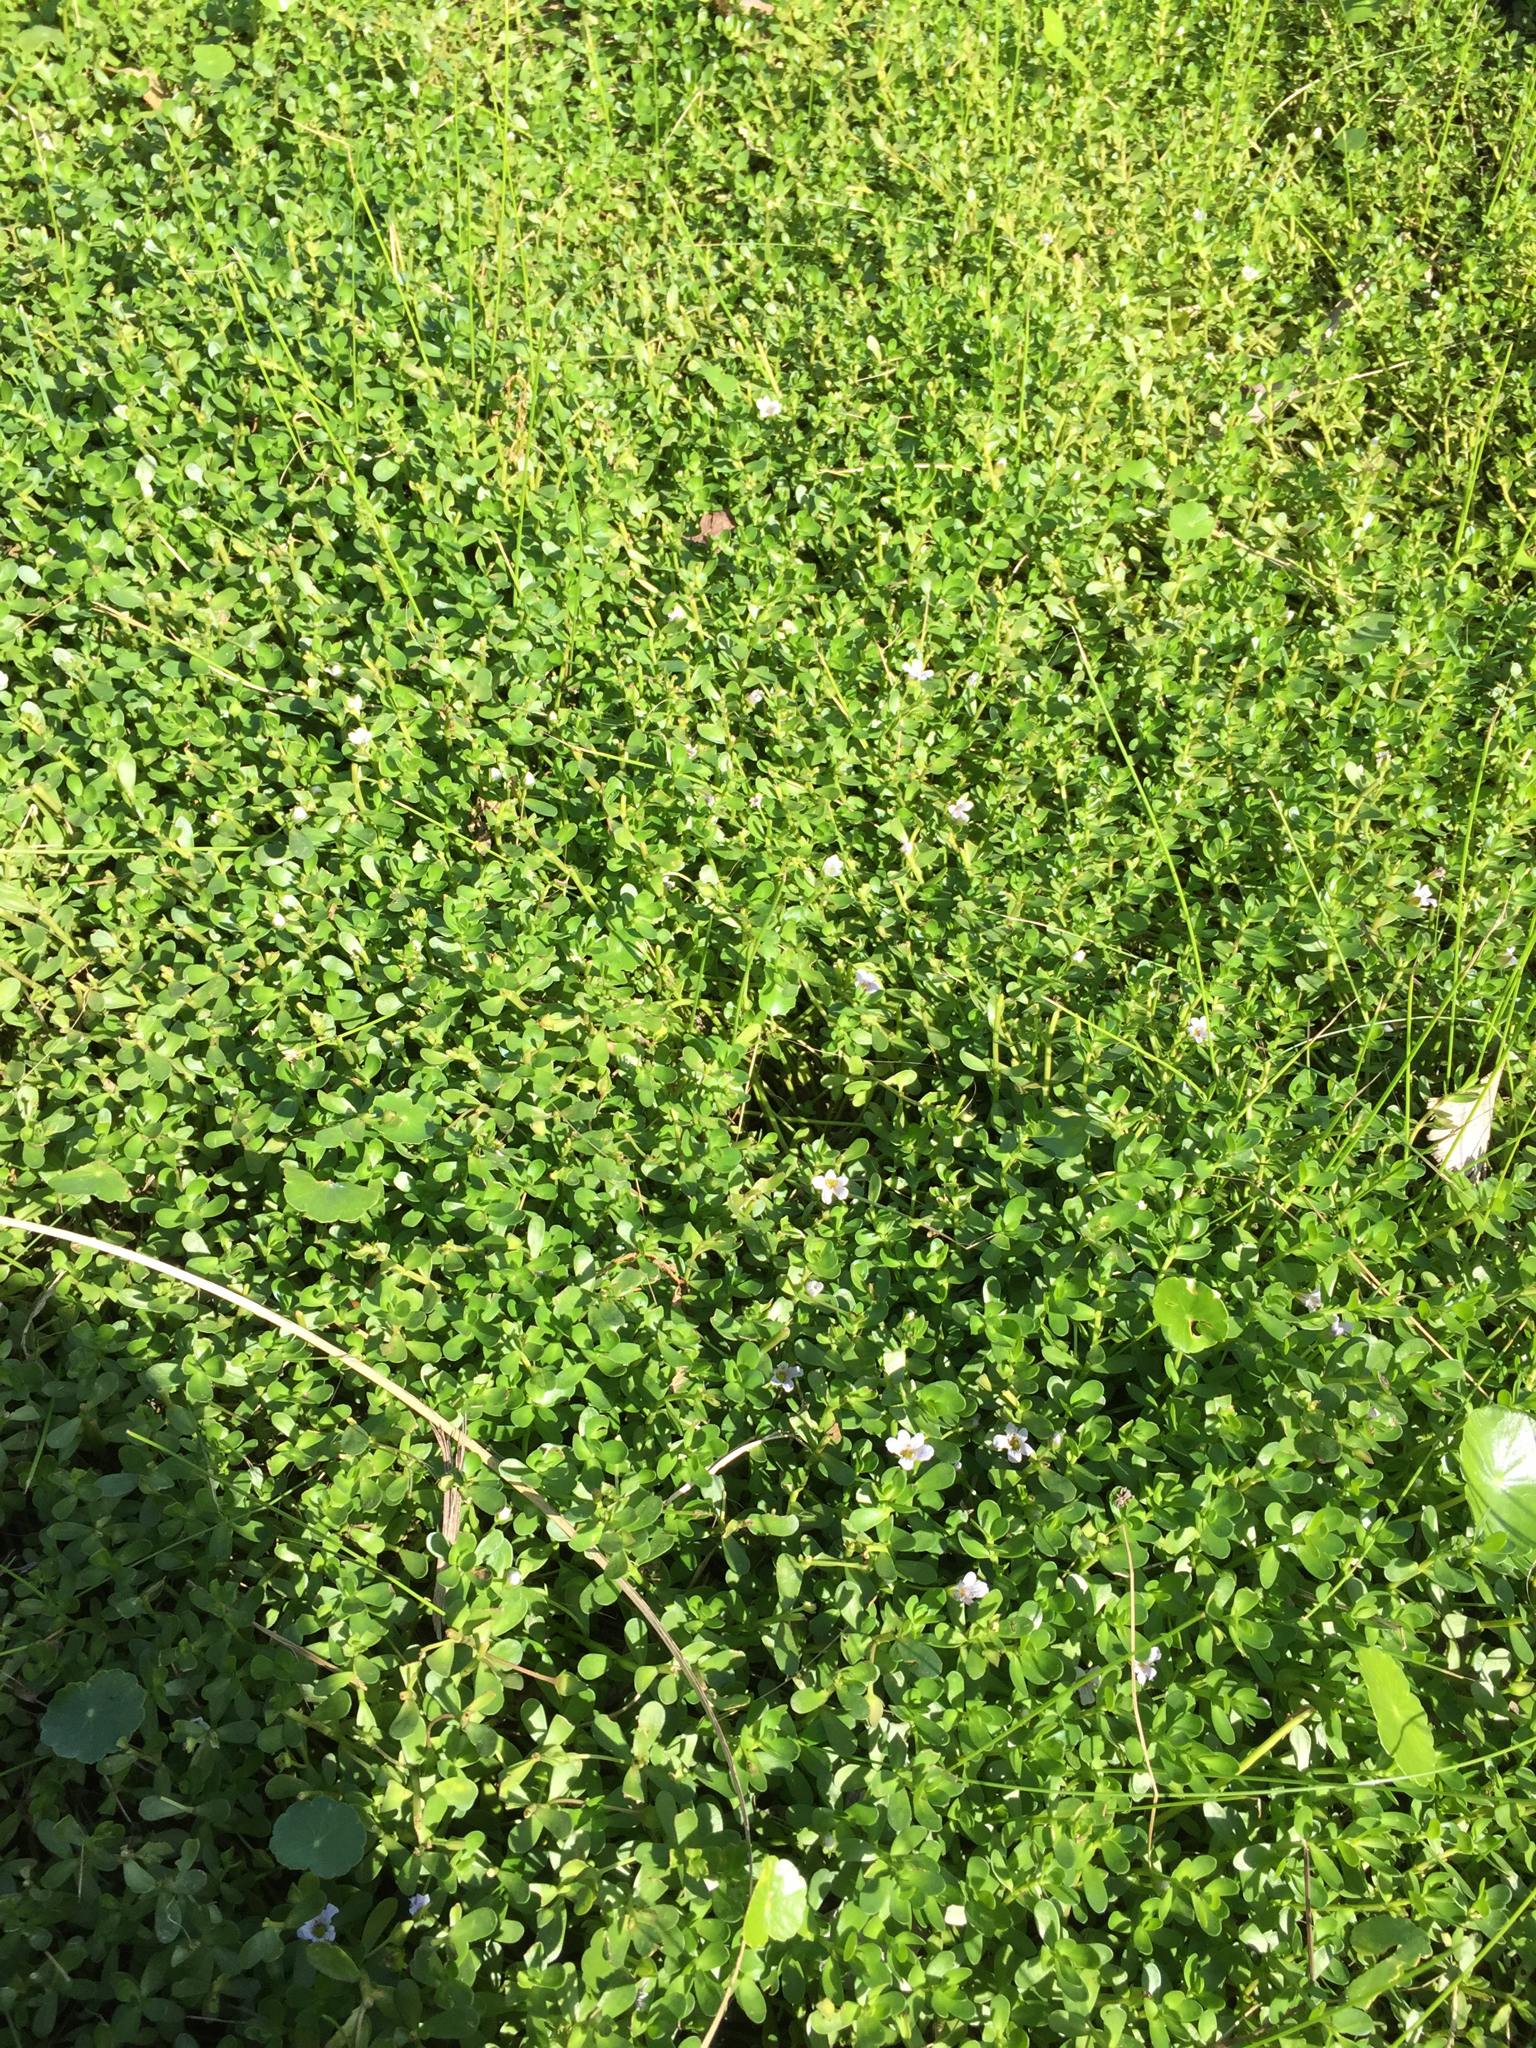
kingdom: Plantae
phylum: Tracheophyta
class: Magnoliopsida
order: Lamiales
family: Plantaginaceae
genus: Bacopa
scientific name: Bacopa monnieri
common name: Indian-pennywort
